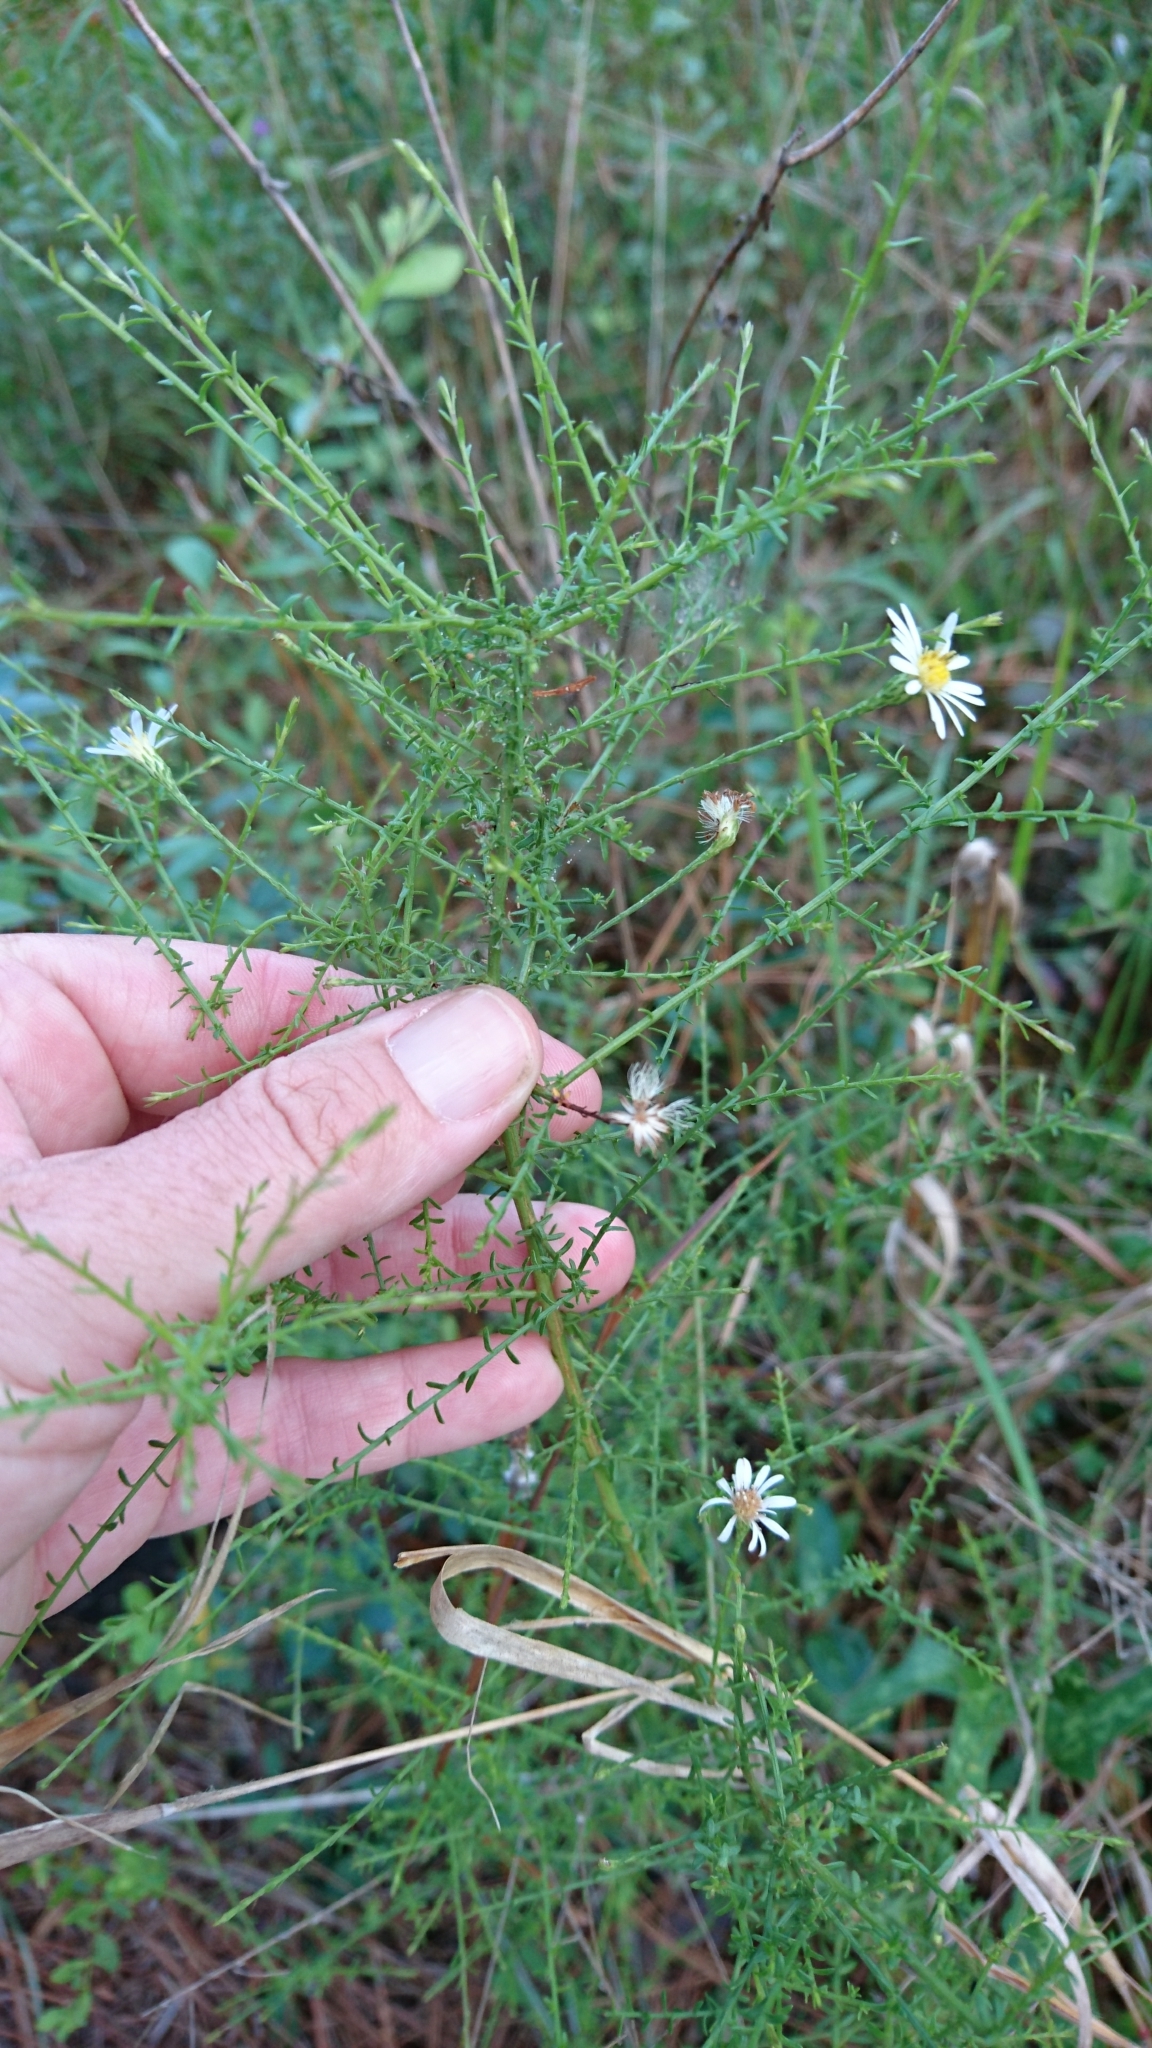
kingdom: Plantae
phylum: Tracheophyta
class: Magnoliopsida
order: Asterales
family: Asteraceae
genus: Symphyotrichum
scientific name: Symphyotrichum dumosum
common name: Bushy aster
